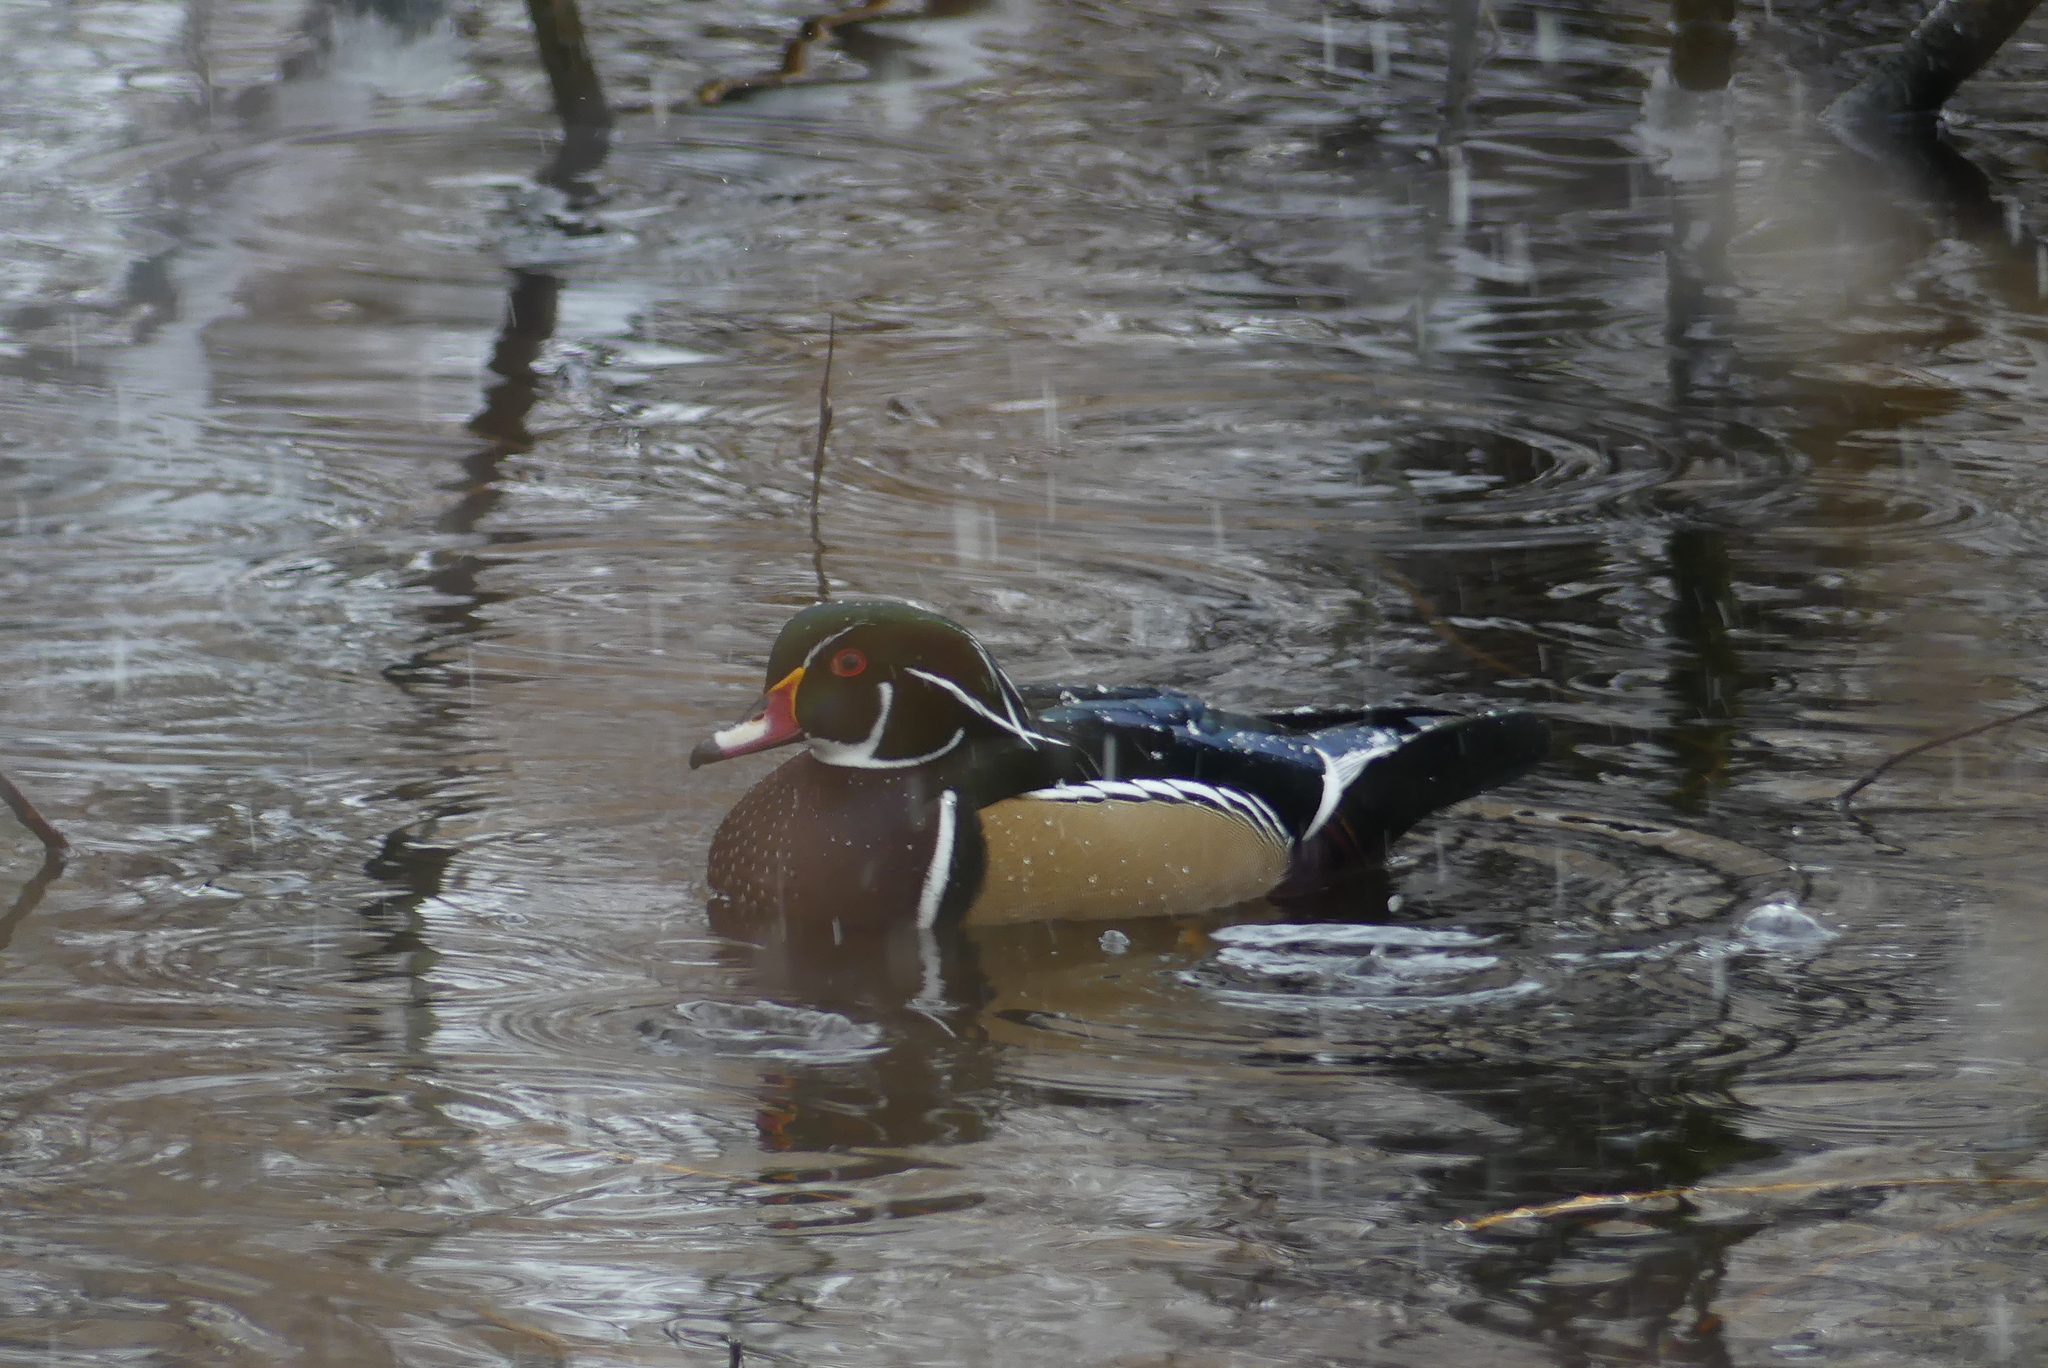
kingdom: Animalia
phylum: Chordata
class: Aves
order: Anseriformes
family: Anatidae
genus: Aix
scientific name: Aix sponsa
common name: Wood duck
